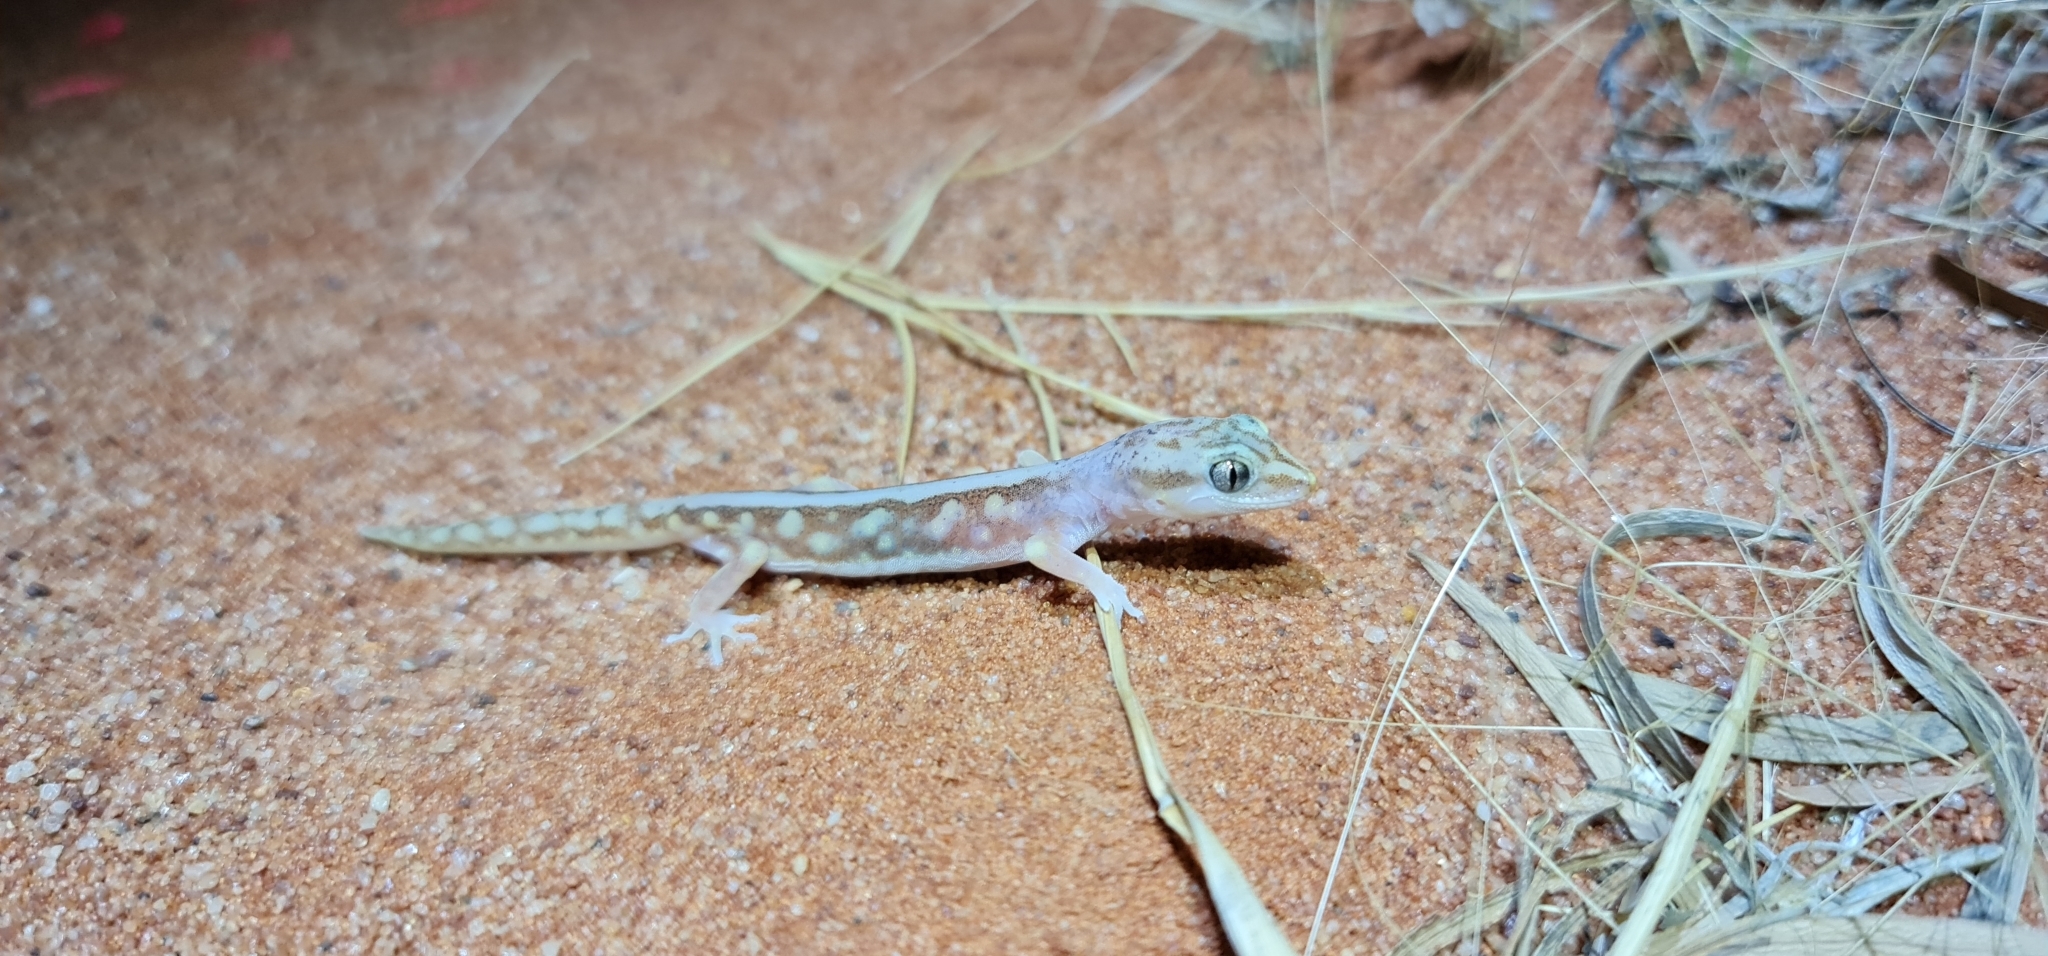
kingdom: Animalia
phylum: Chordata
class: Squamata
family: Diplodactylidae
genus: Lucasium
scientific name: Lucasium microplax
